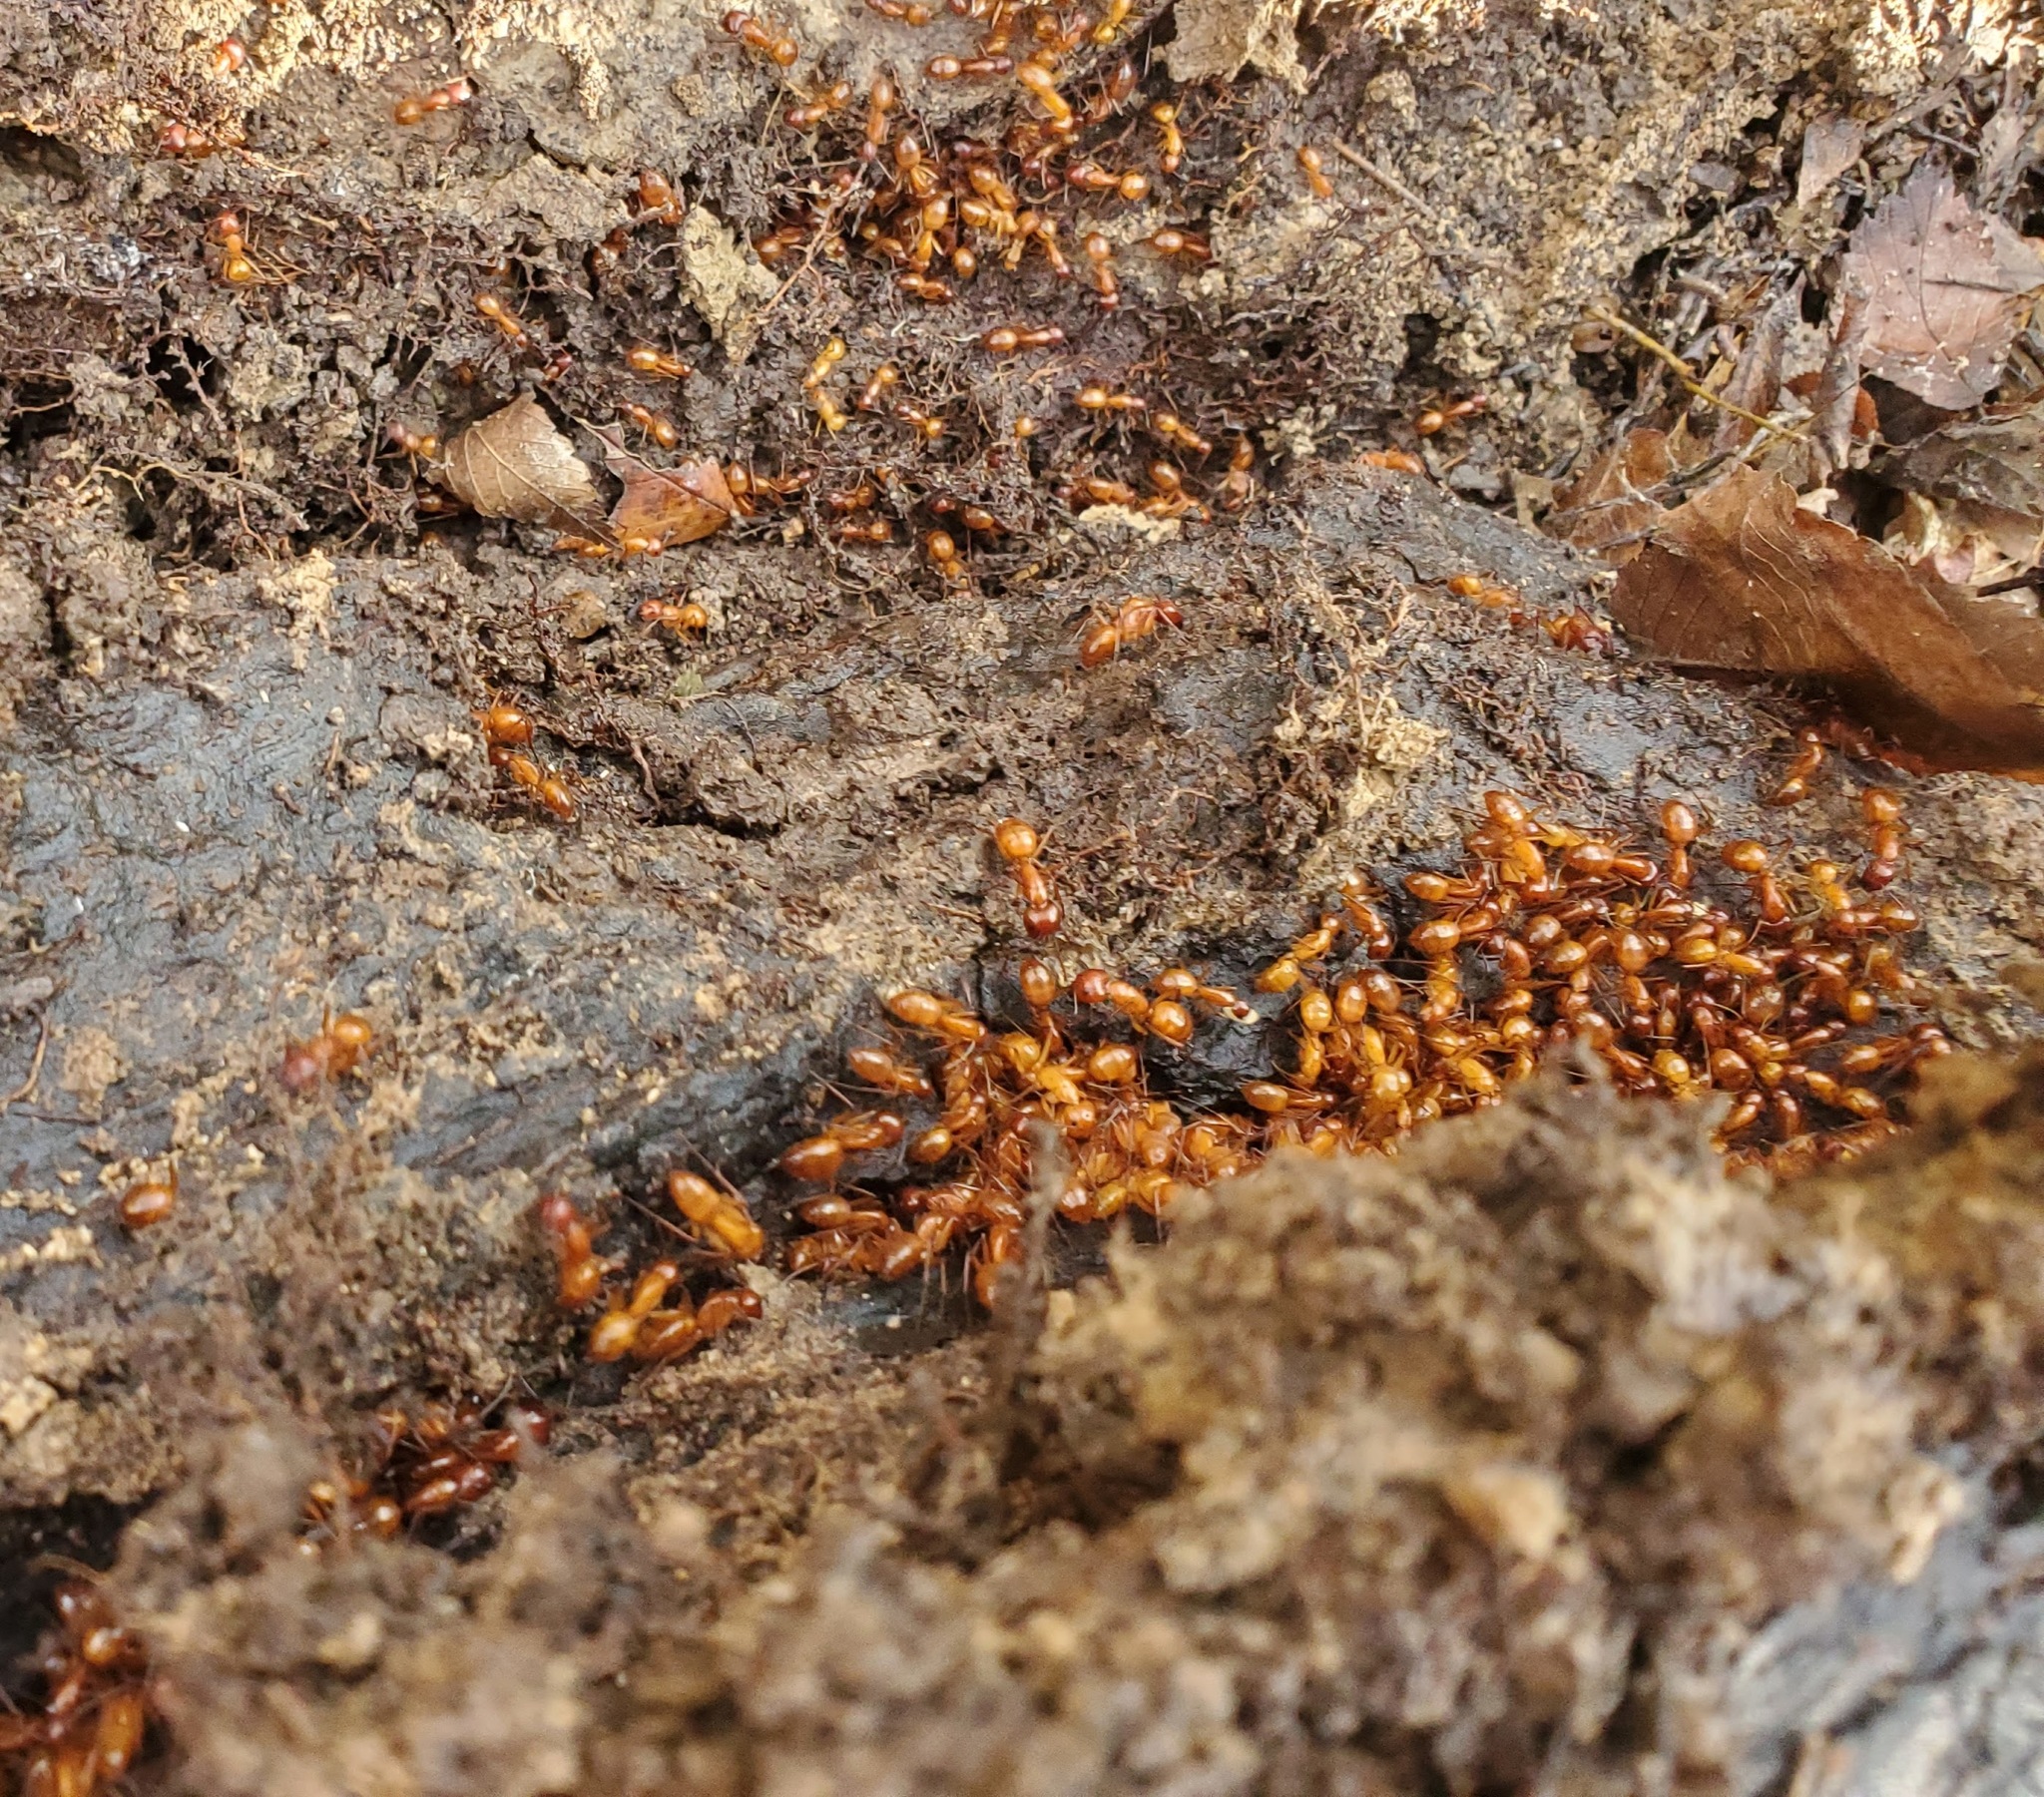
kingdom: Animalia
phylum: Arthropoda
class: Insecta
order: Hymenoptera
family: Formicidae
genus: Camponotus
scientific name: Camponotus castaneus
